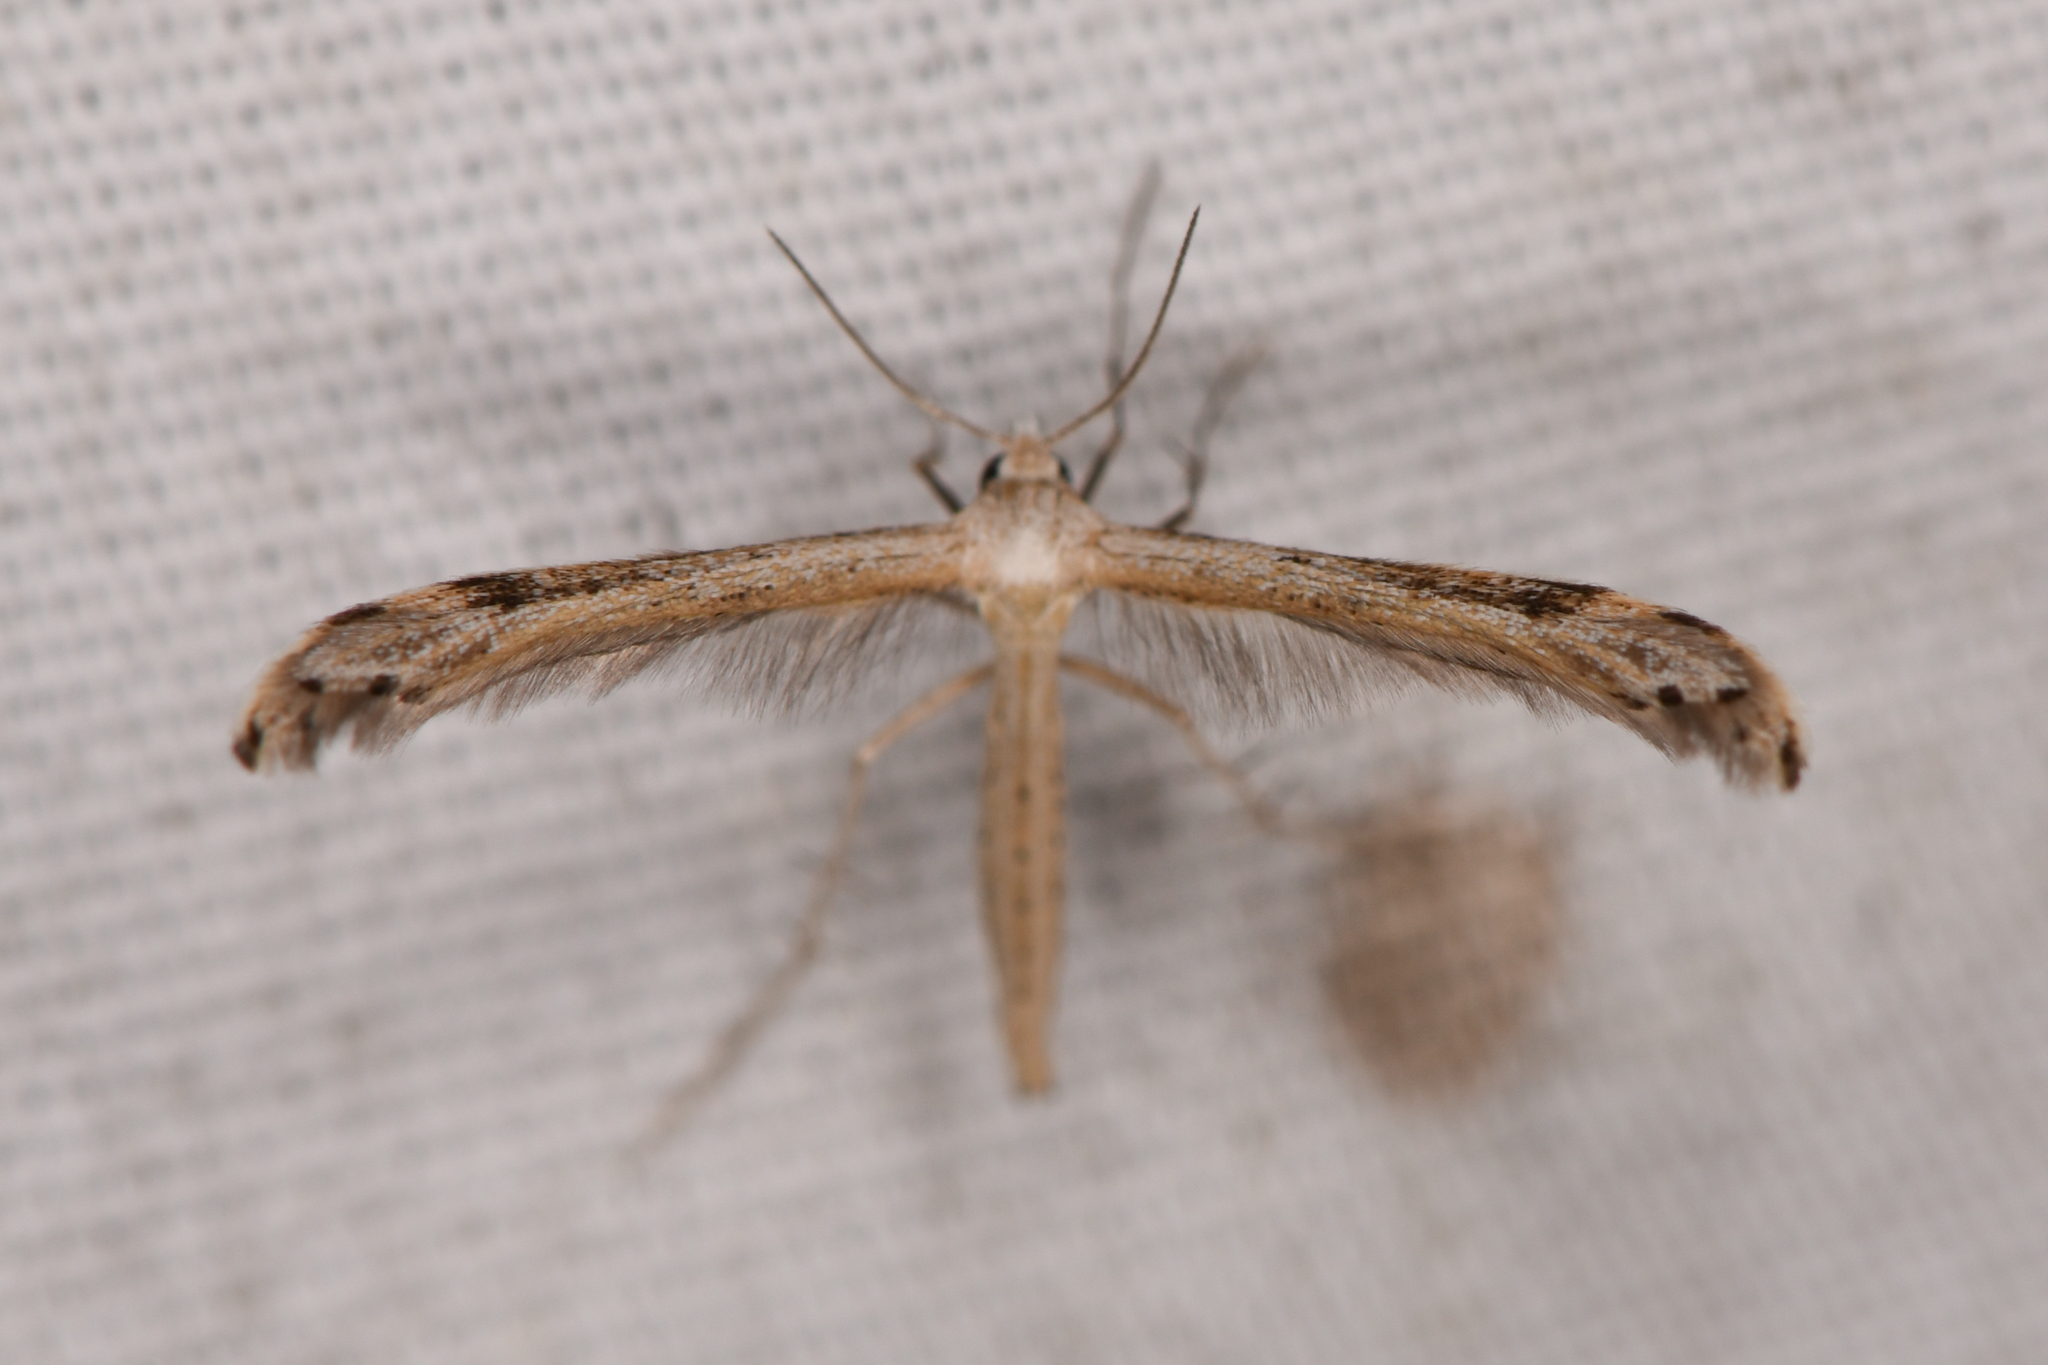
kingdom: Animalia
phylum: Arthropoda
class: Insecta
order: Lepidoptera
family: Pterophoridae
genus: Lioptilodes
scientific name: Lioptilodes albistriolatus
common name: Moth
